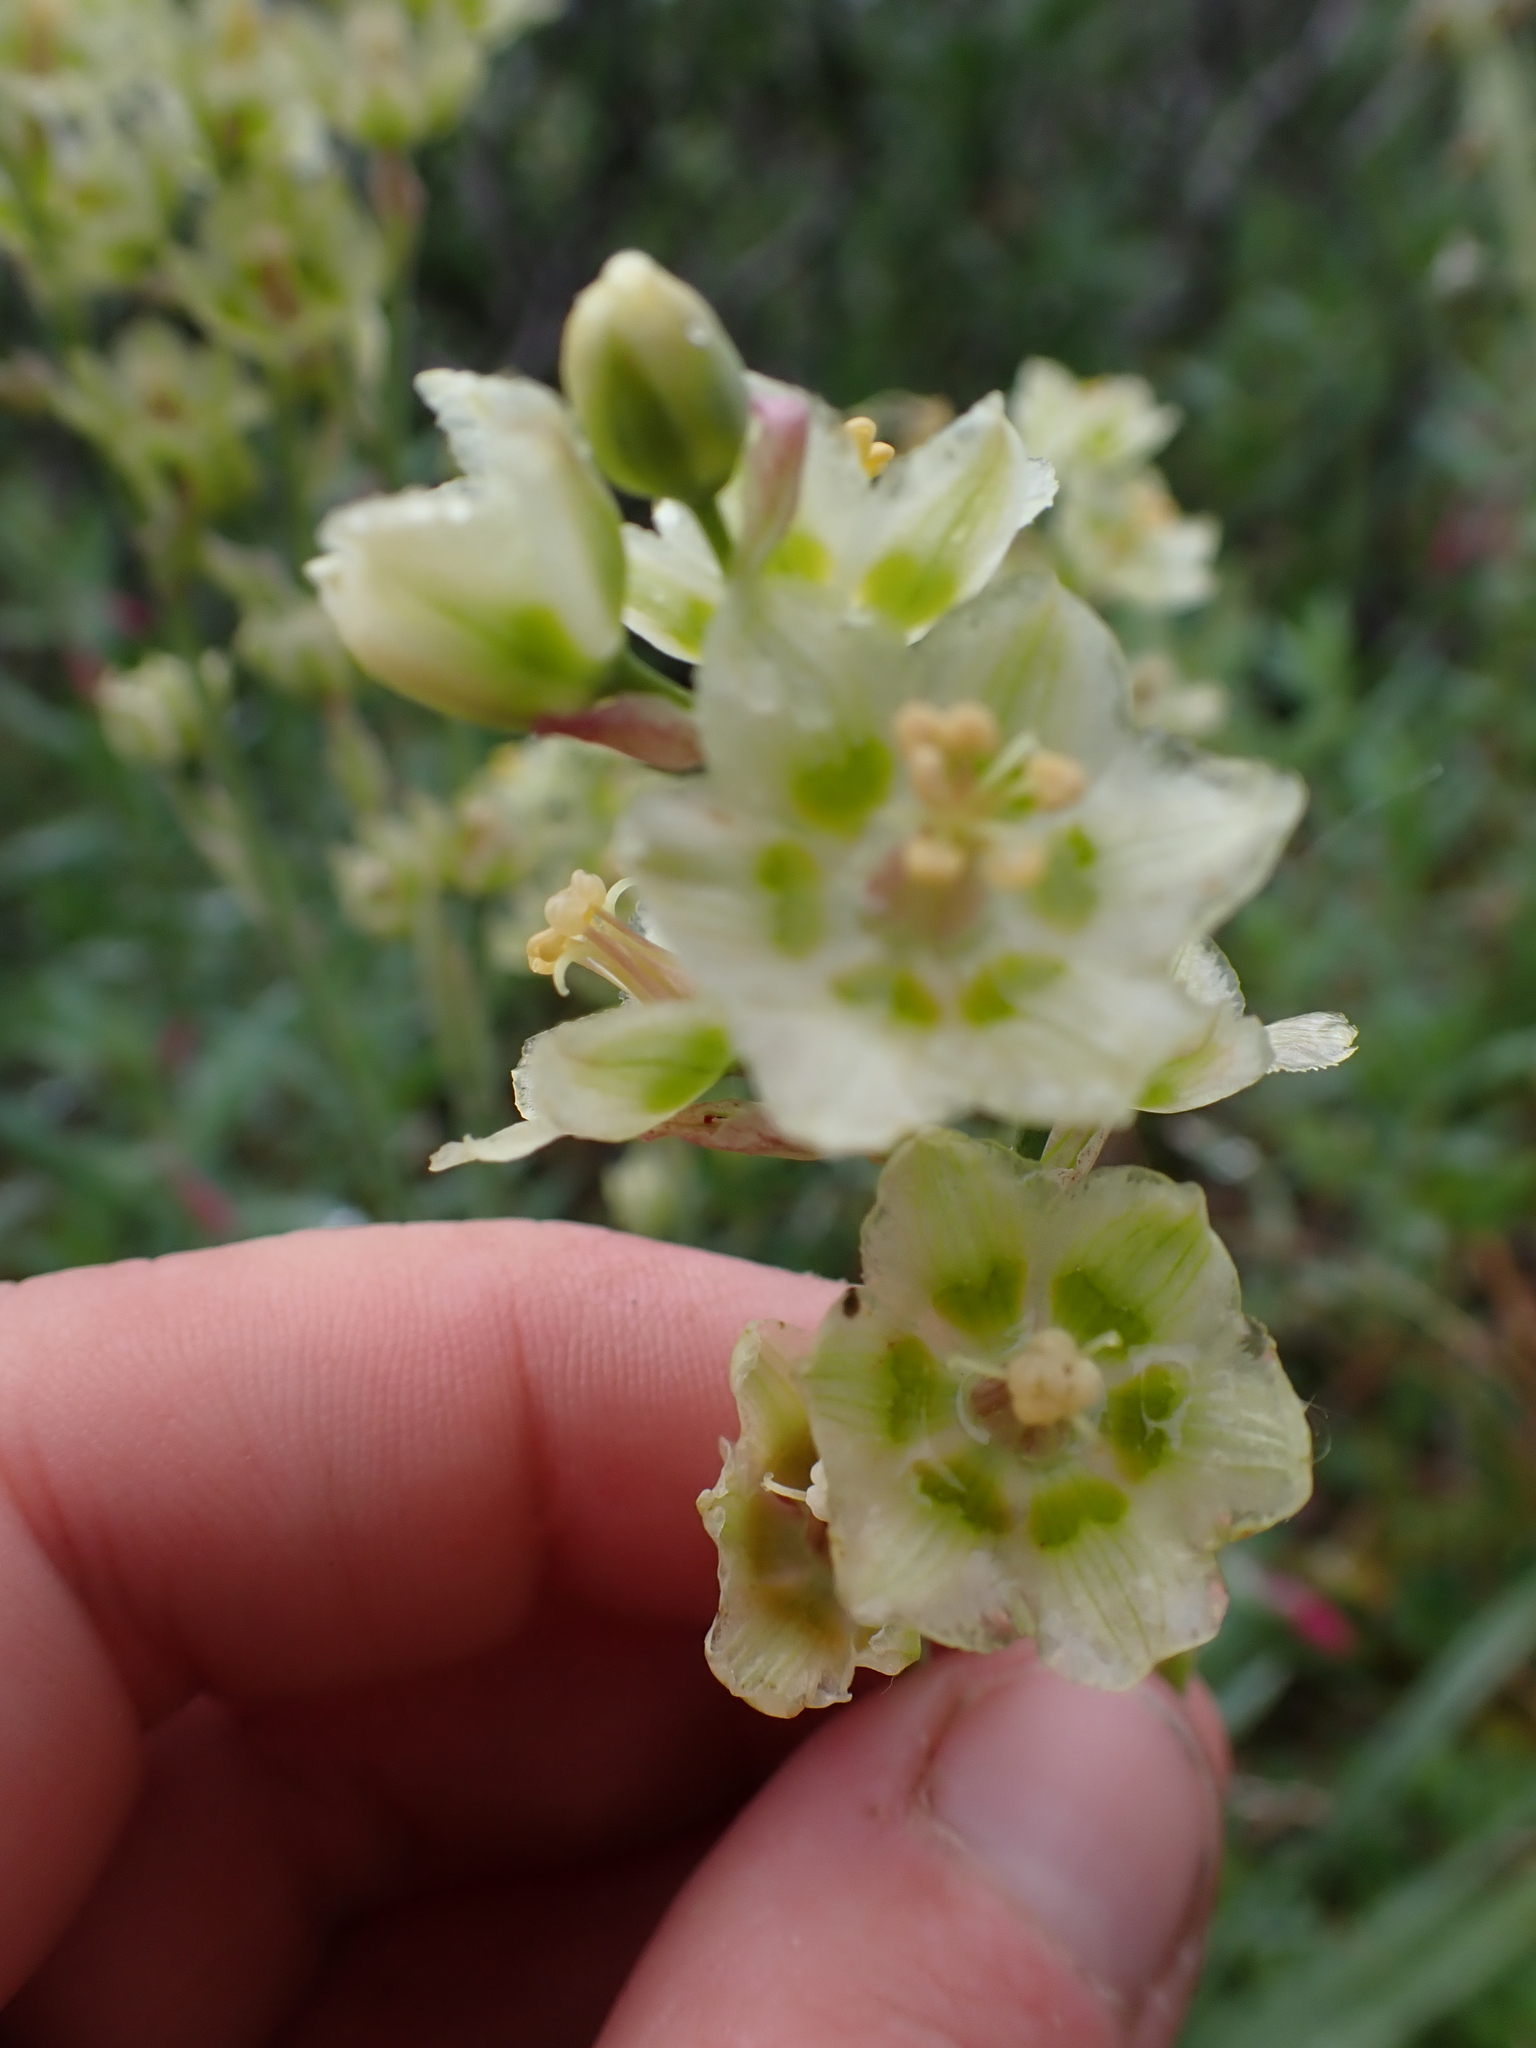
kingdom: Plantae
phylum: Tracheophyta
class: Liliopsida
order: Liliales
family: Melanthiaceae
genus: Anticlea
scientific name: Anticlea elegans
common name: Mountain death camas
